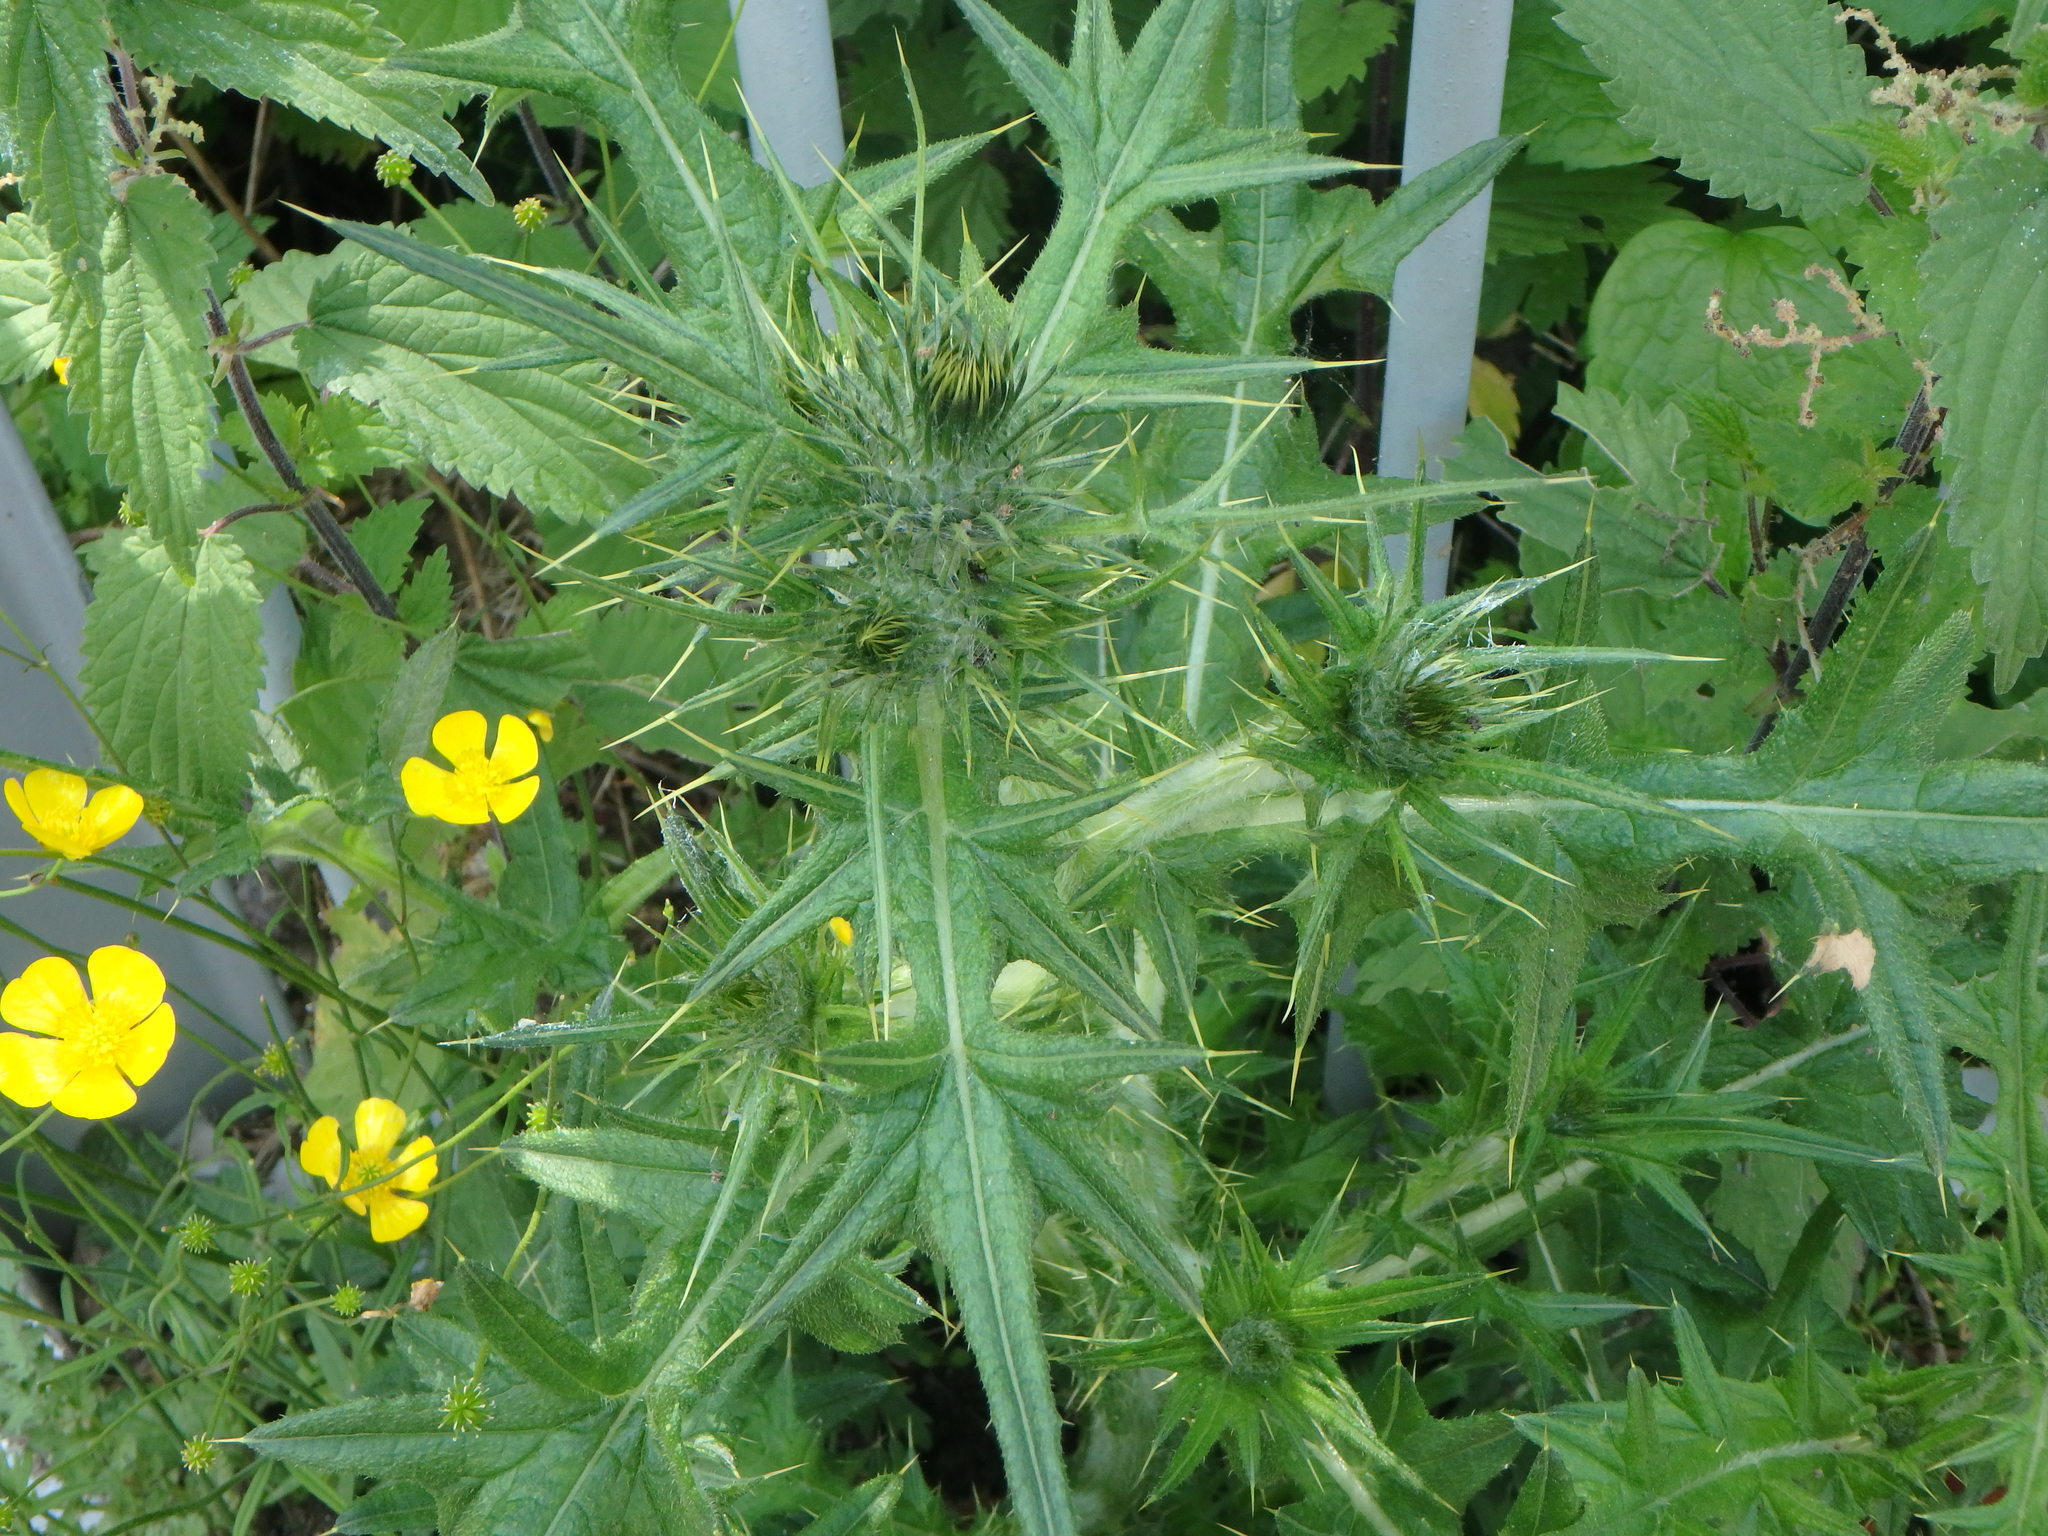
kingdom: Plantae
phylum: Tracheophyta
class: Magnoliopsida
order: Asterales
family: Asteraceae
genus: Cirsium
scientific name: Cirsium vulgare
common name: Bull thistle
